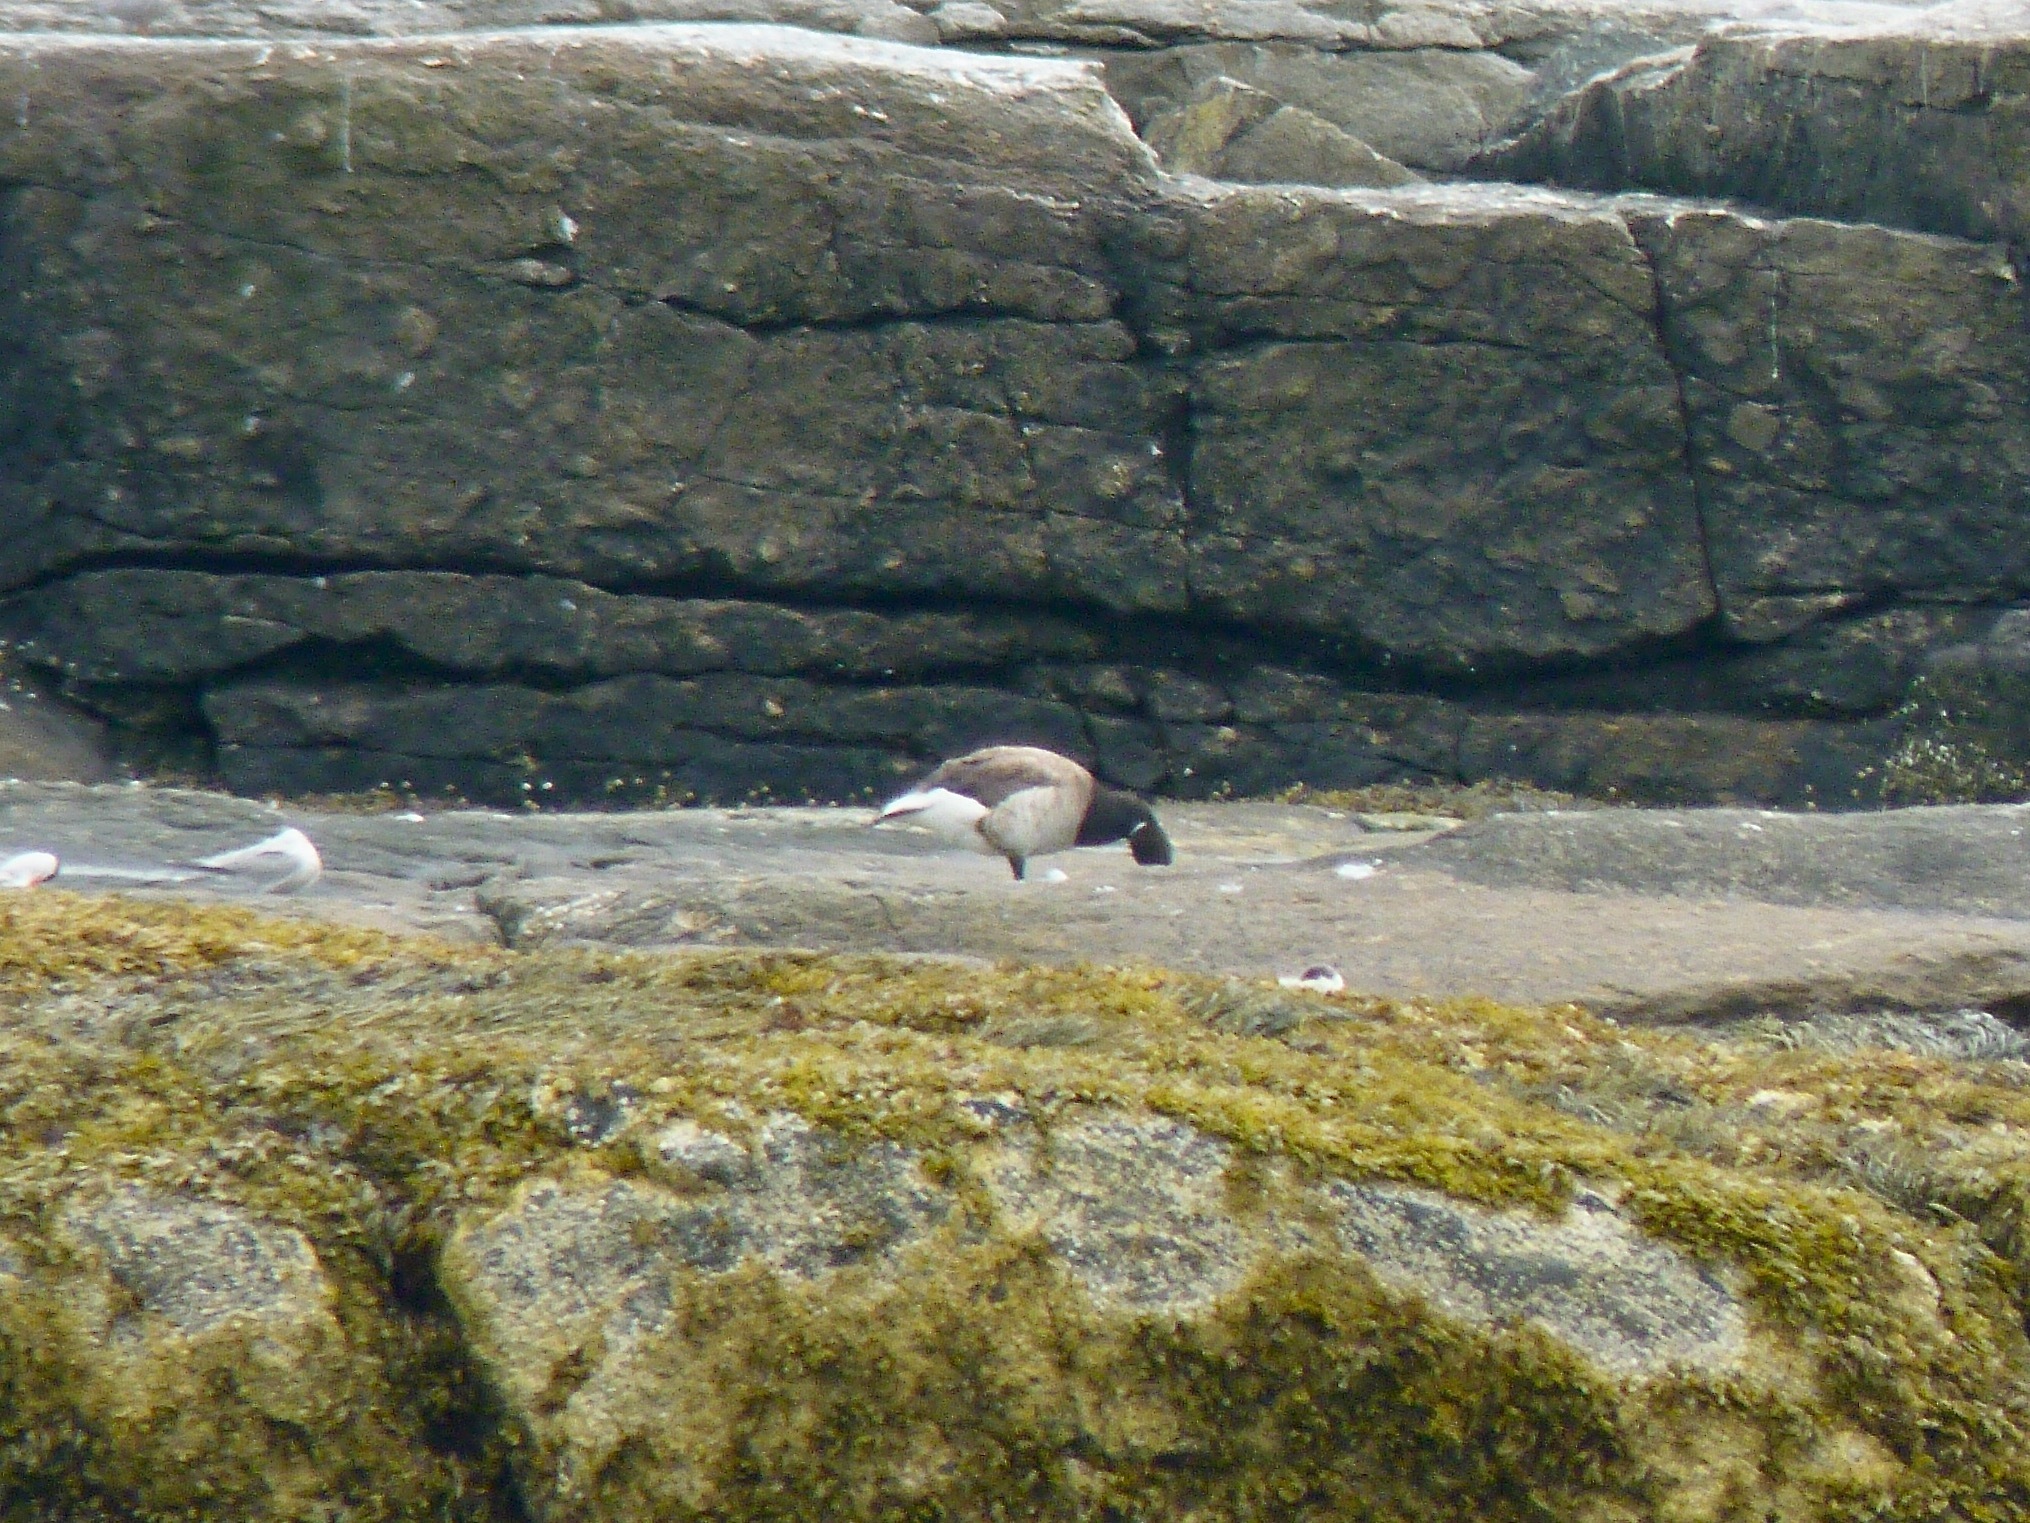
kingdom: Animalia
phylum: Chordata
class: Aves
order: Anseriformes
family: Anatidae
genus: Branta
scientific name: Branta bernicla
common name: Brant goose
